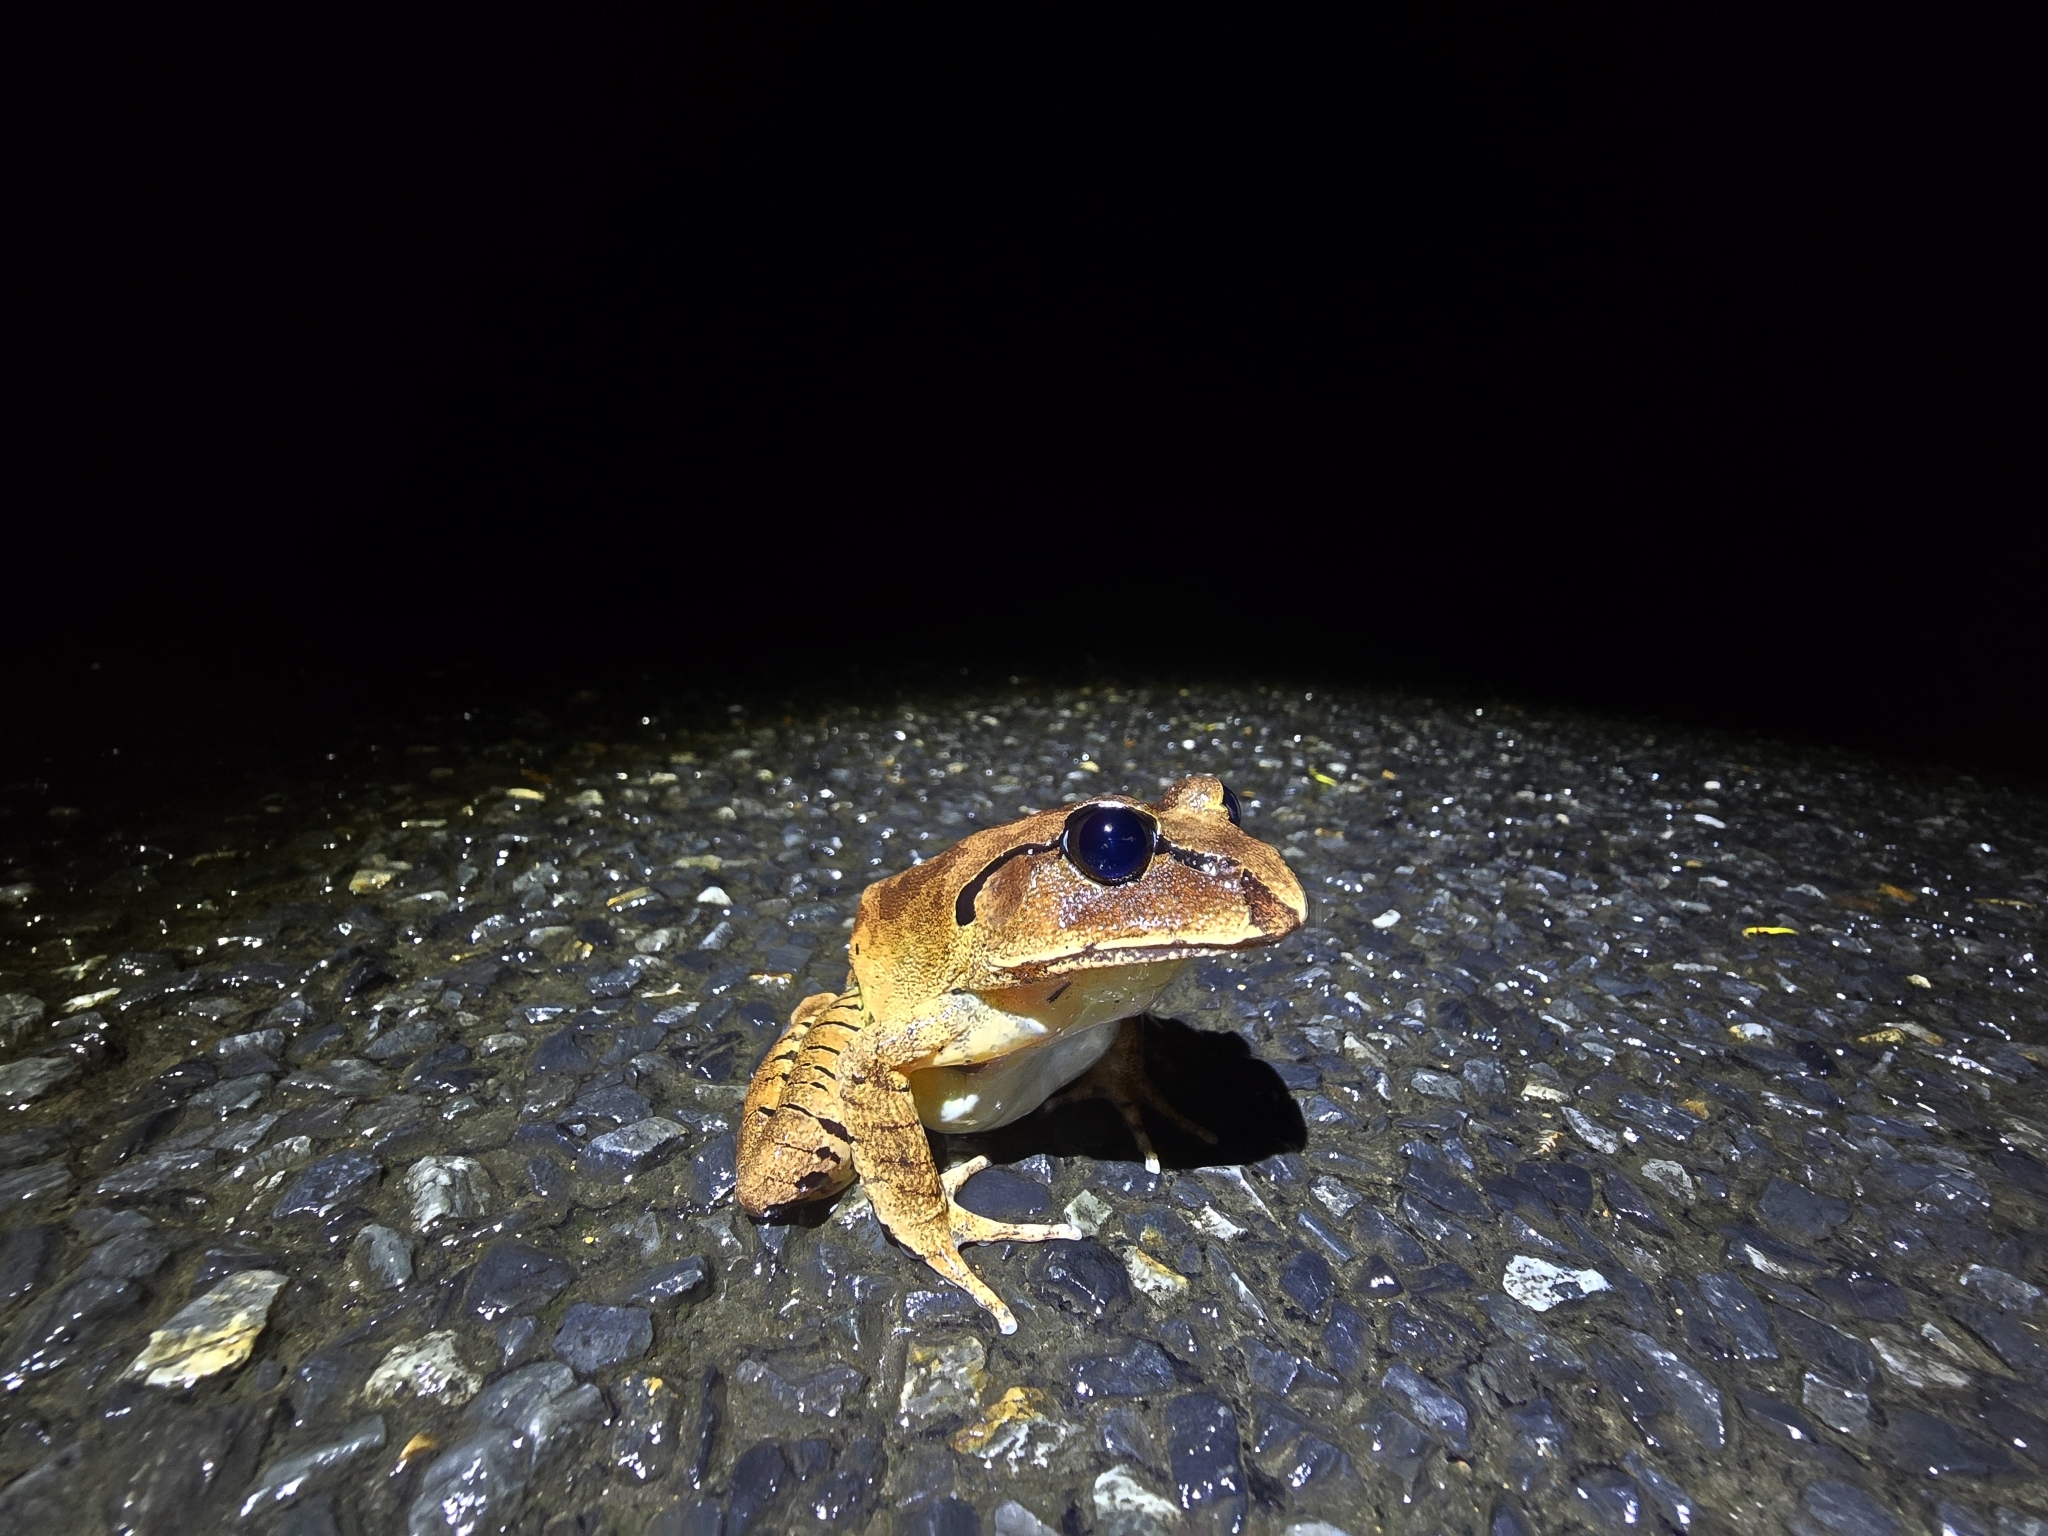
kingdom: Animalia
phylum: Chordata
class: Amphibia
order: Anura
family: Myobatrachidae
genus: Mixophyes
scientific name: Mixophyes fasciolatus
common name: Great barred river-frog
